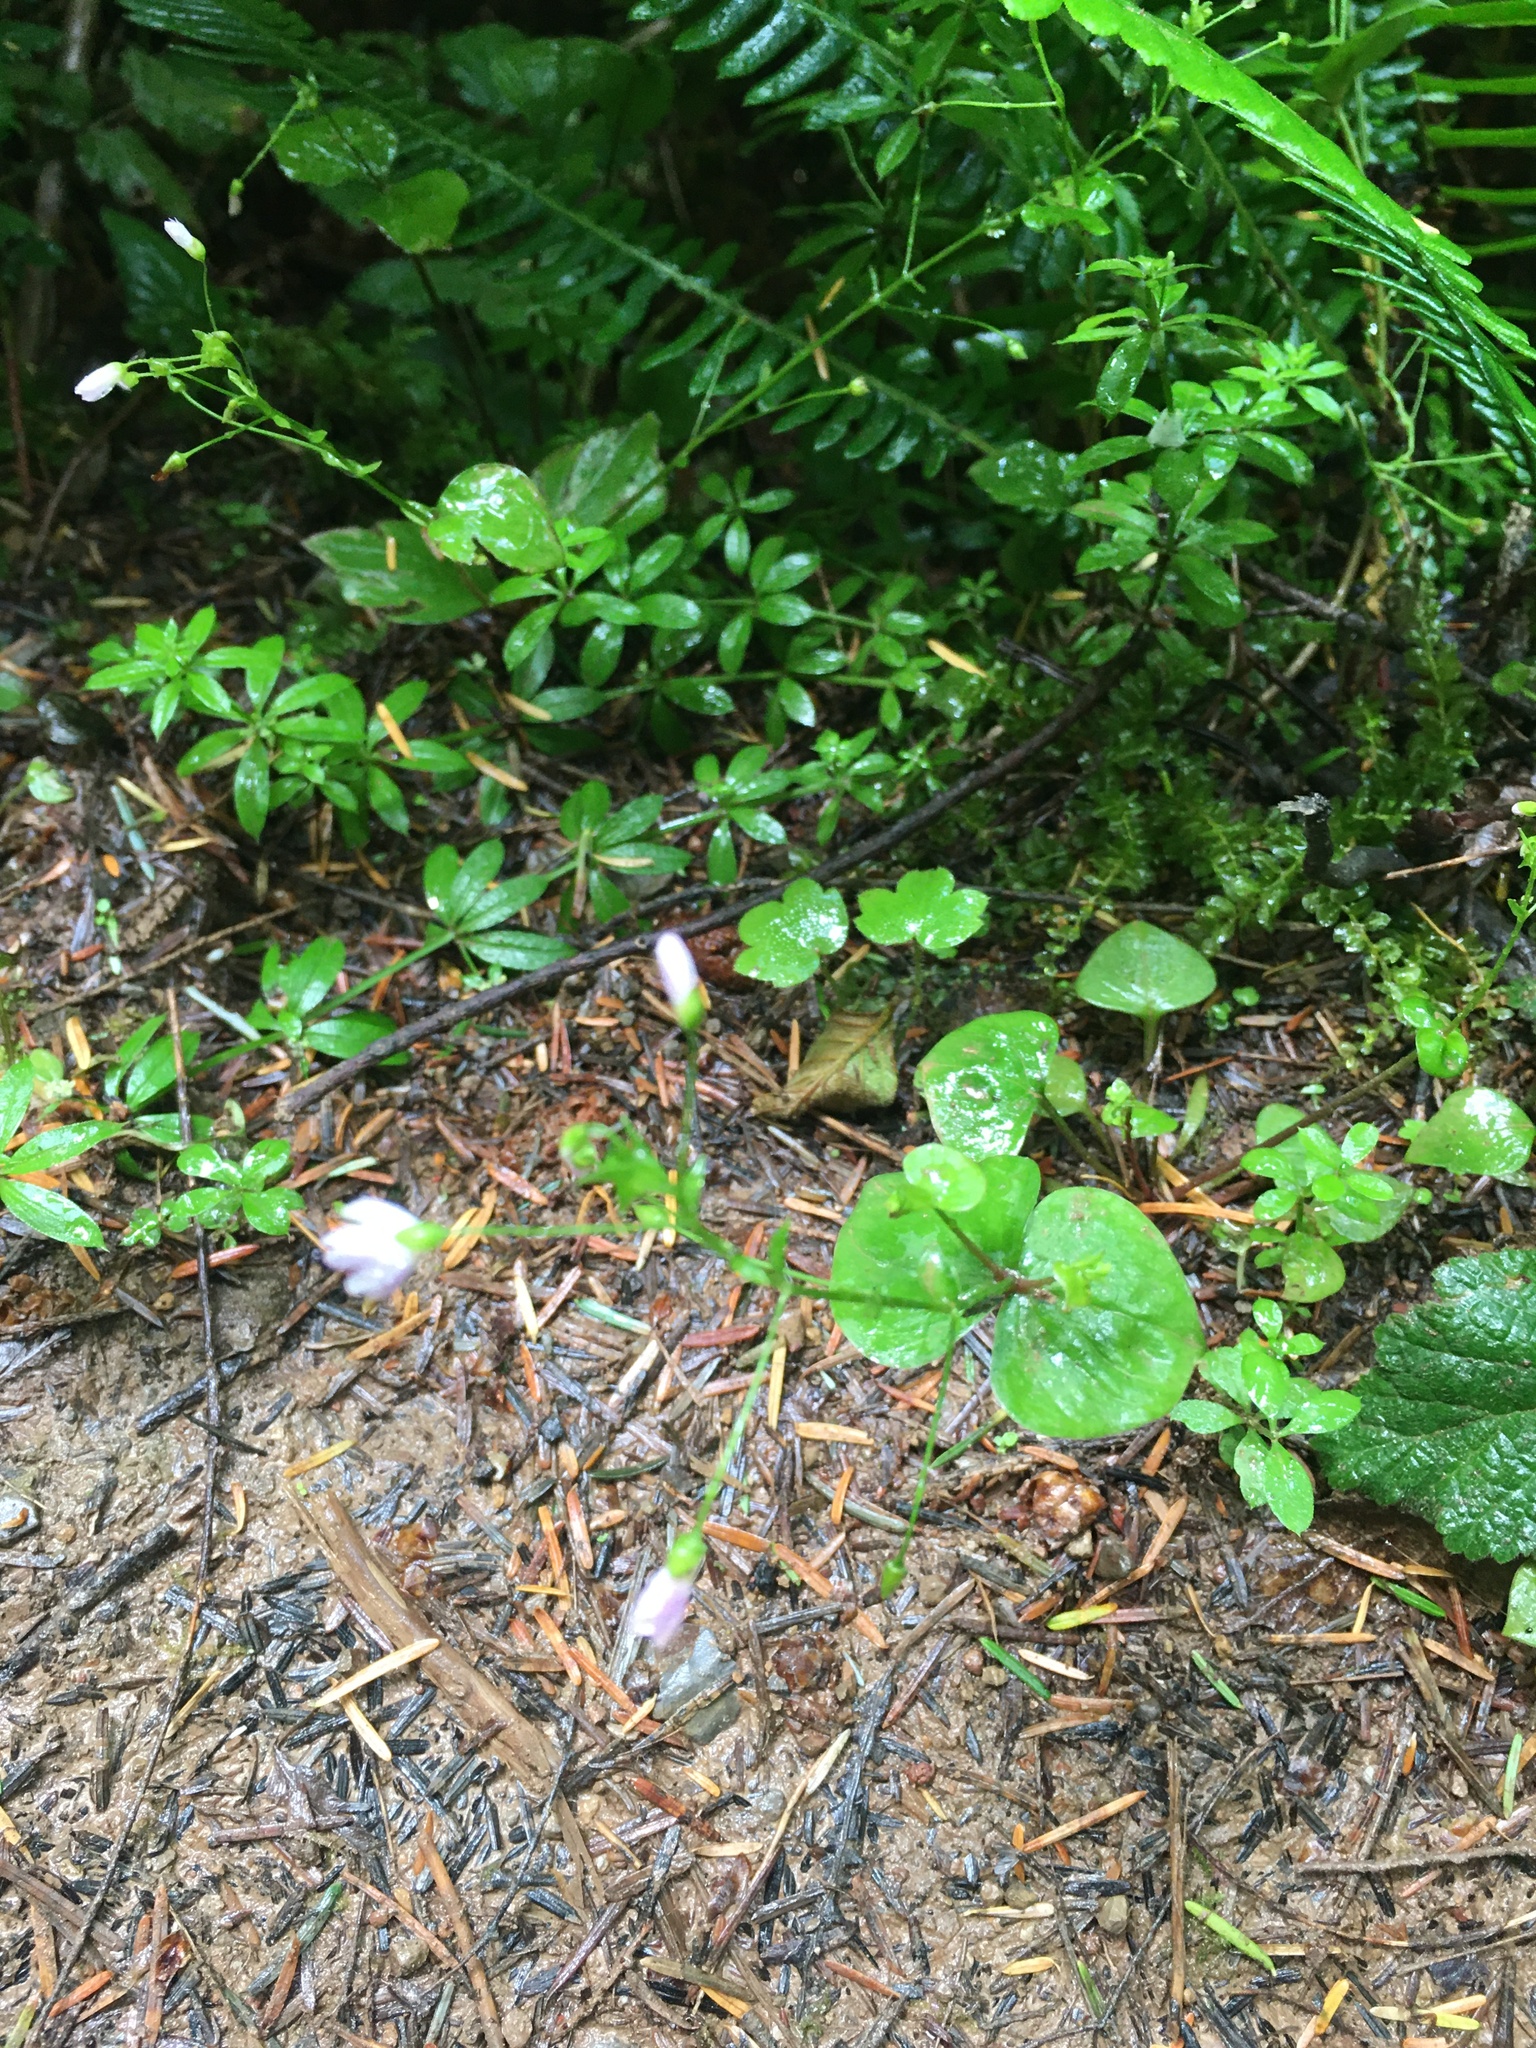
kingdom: Plantae
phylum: Tracheophyta
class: Magnoliopsida
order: Caryophyllales
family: Montiaceae
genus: Claytonia
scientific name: Claytonia sibirica
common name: Pink purslane
